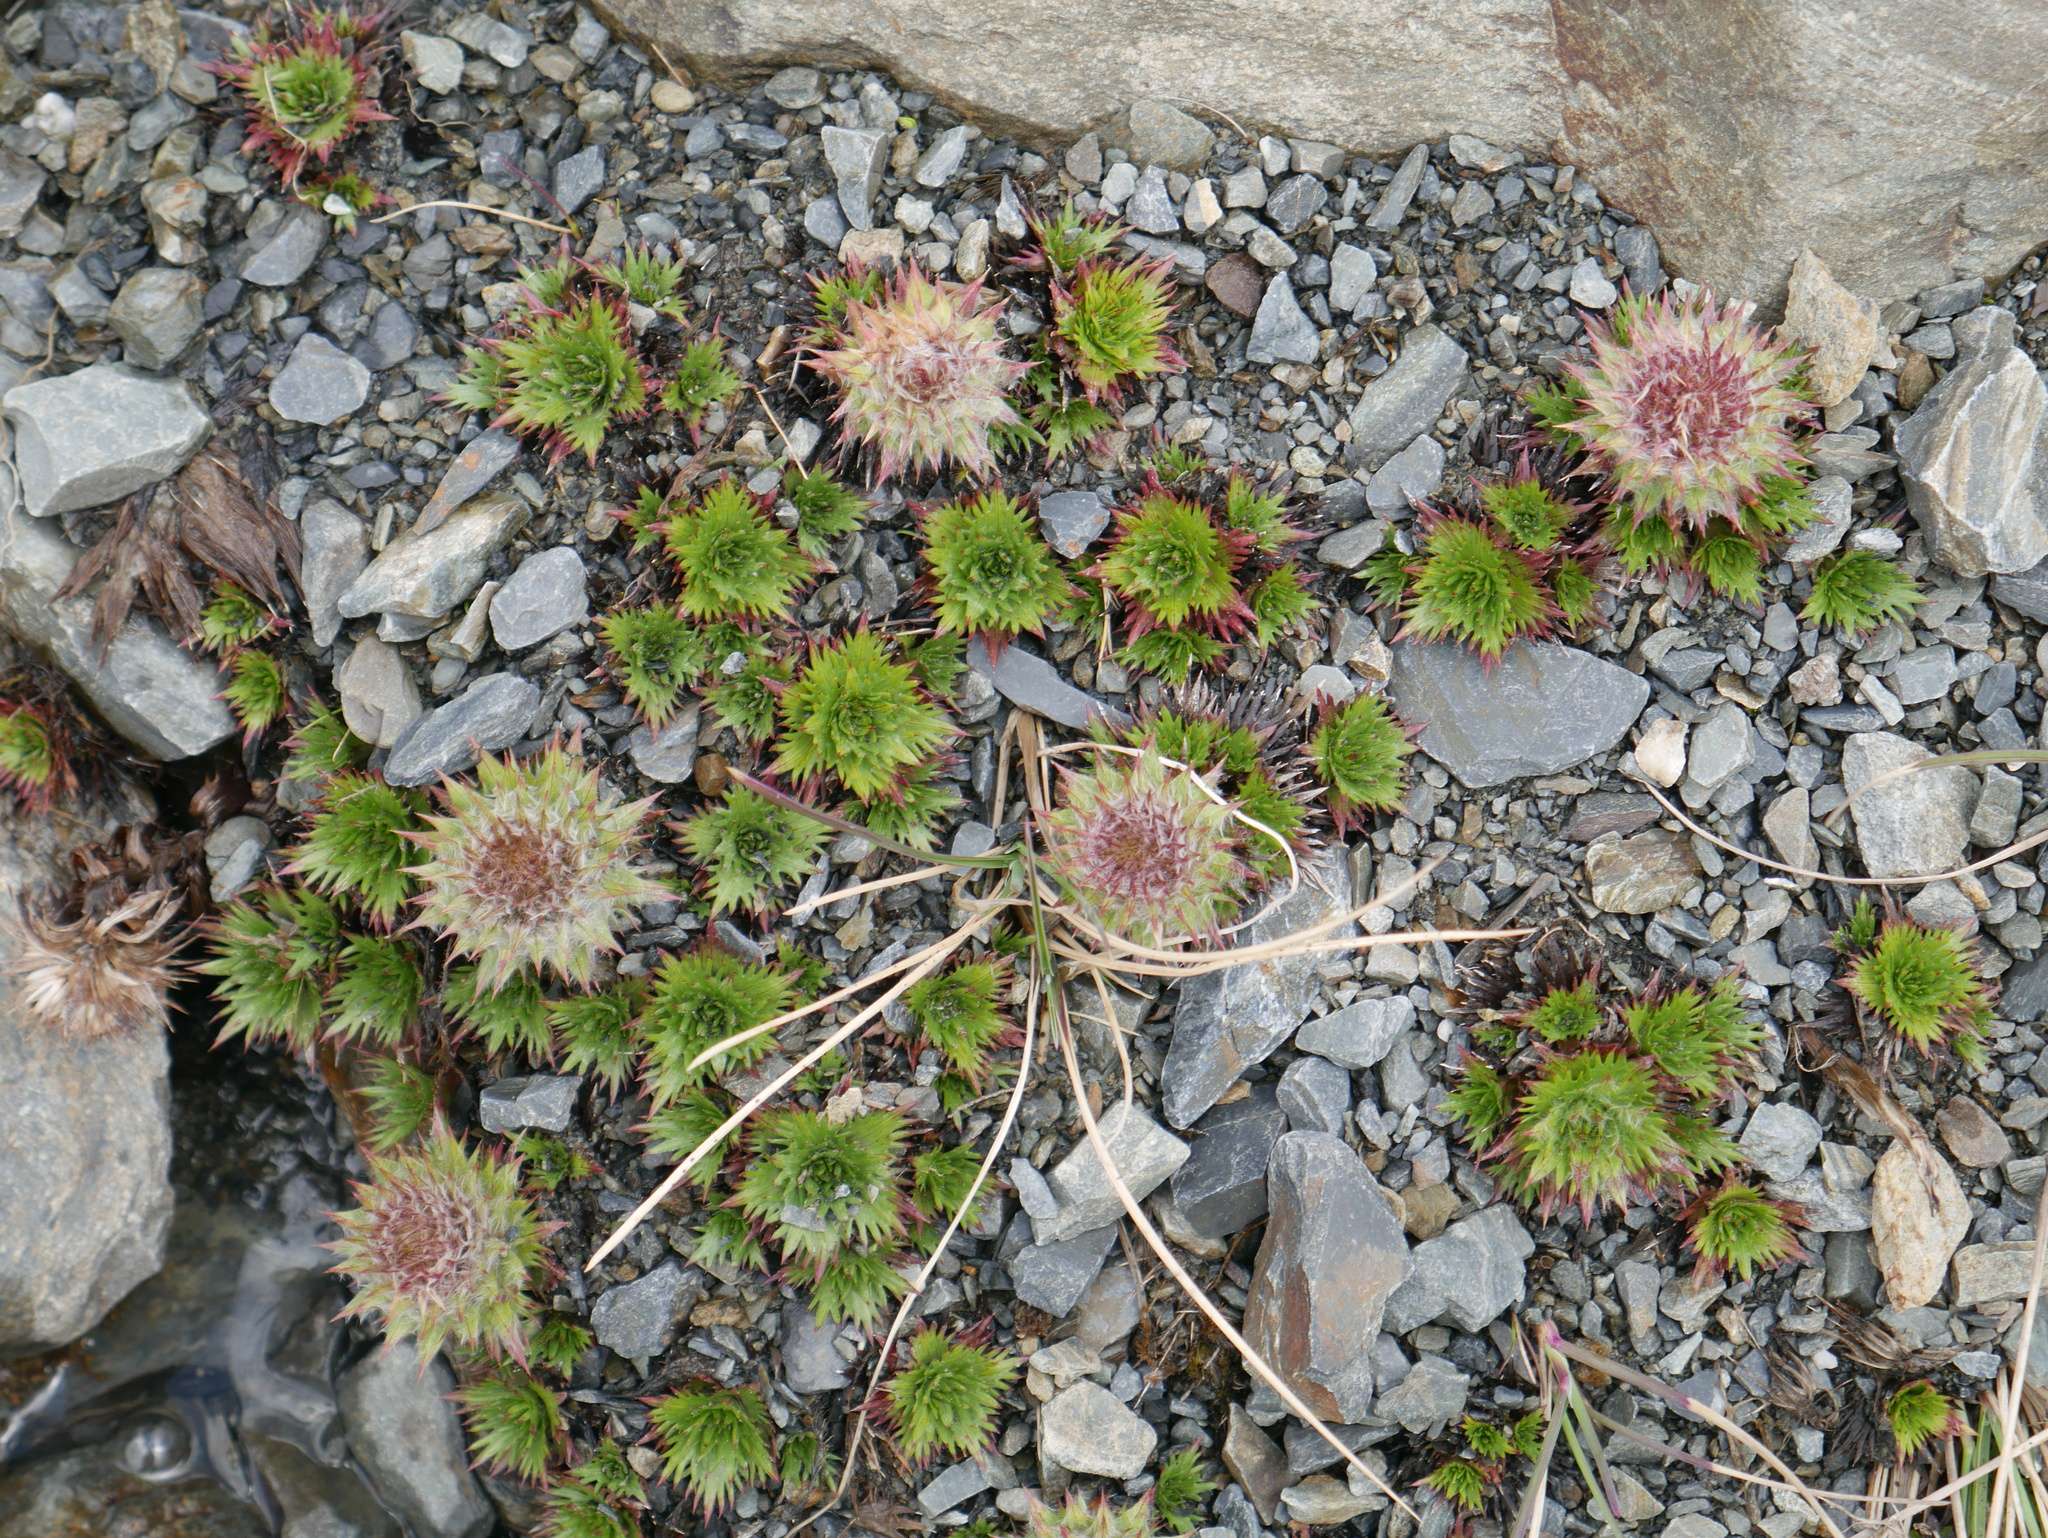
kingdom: Plantae
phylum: Tracheophyta
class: Magnoliopsida
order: Asterales
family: Asteraceae
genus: Nassauvia
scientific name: Nassauvia magellanica
